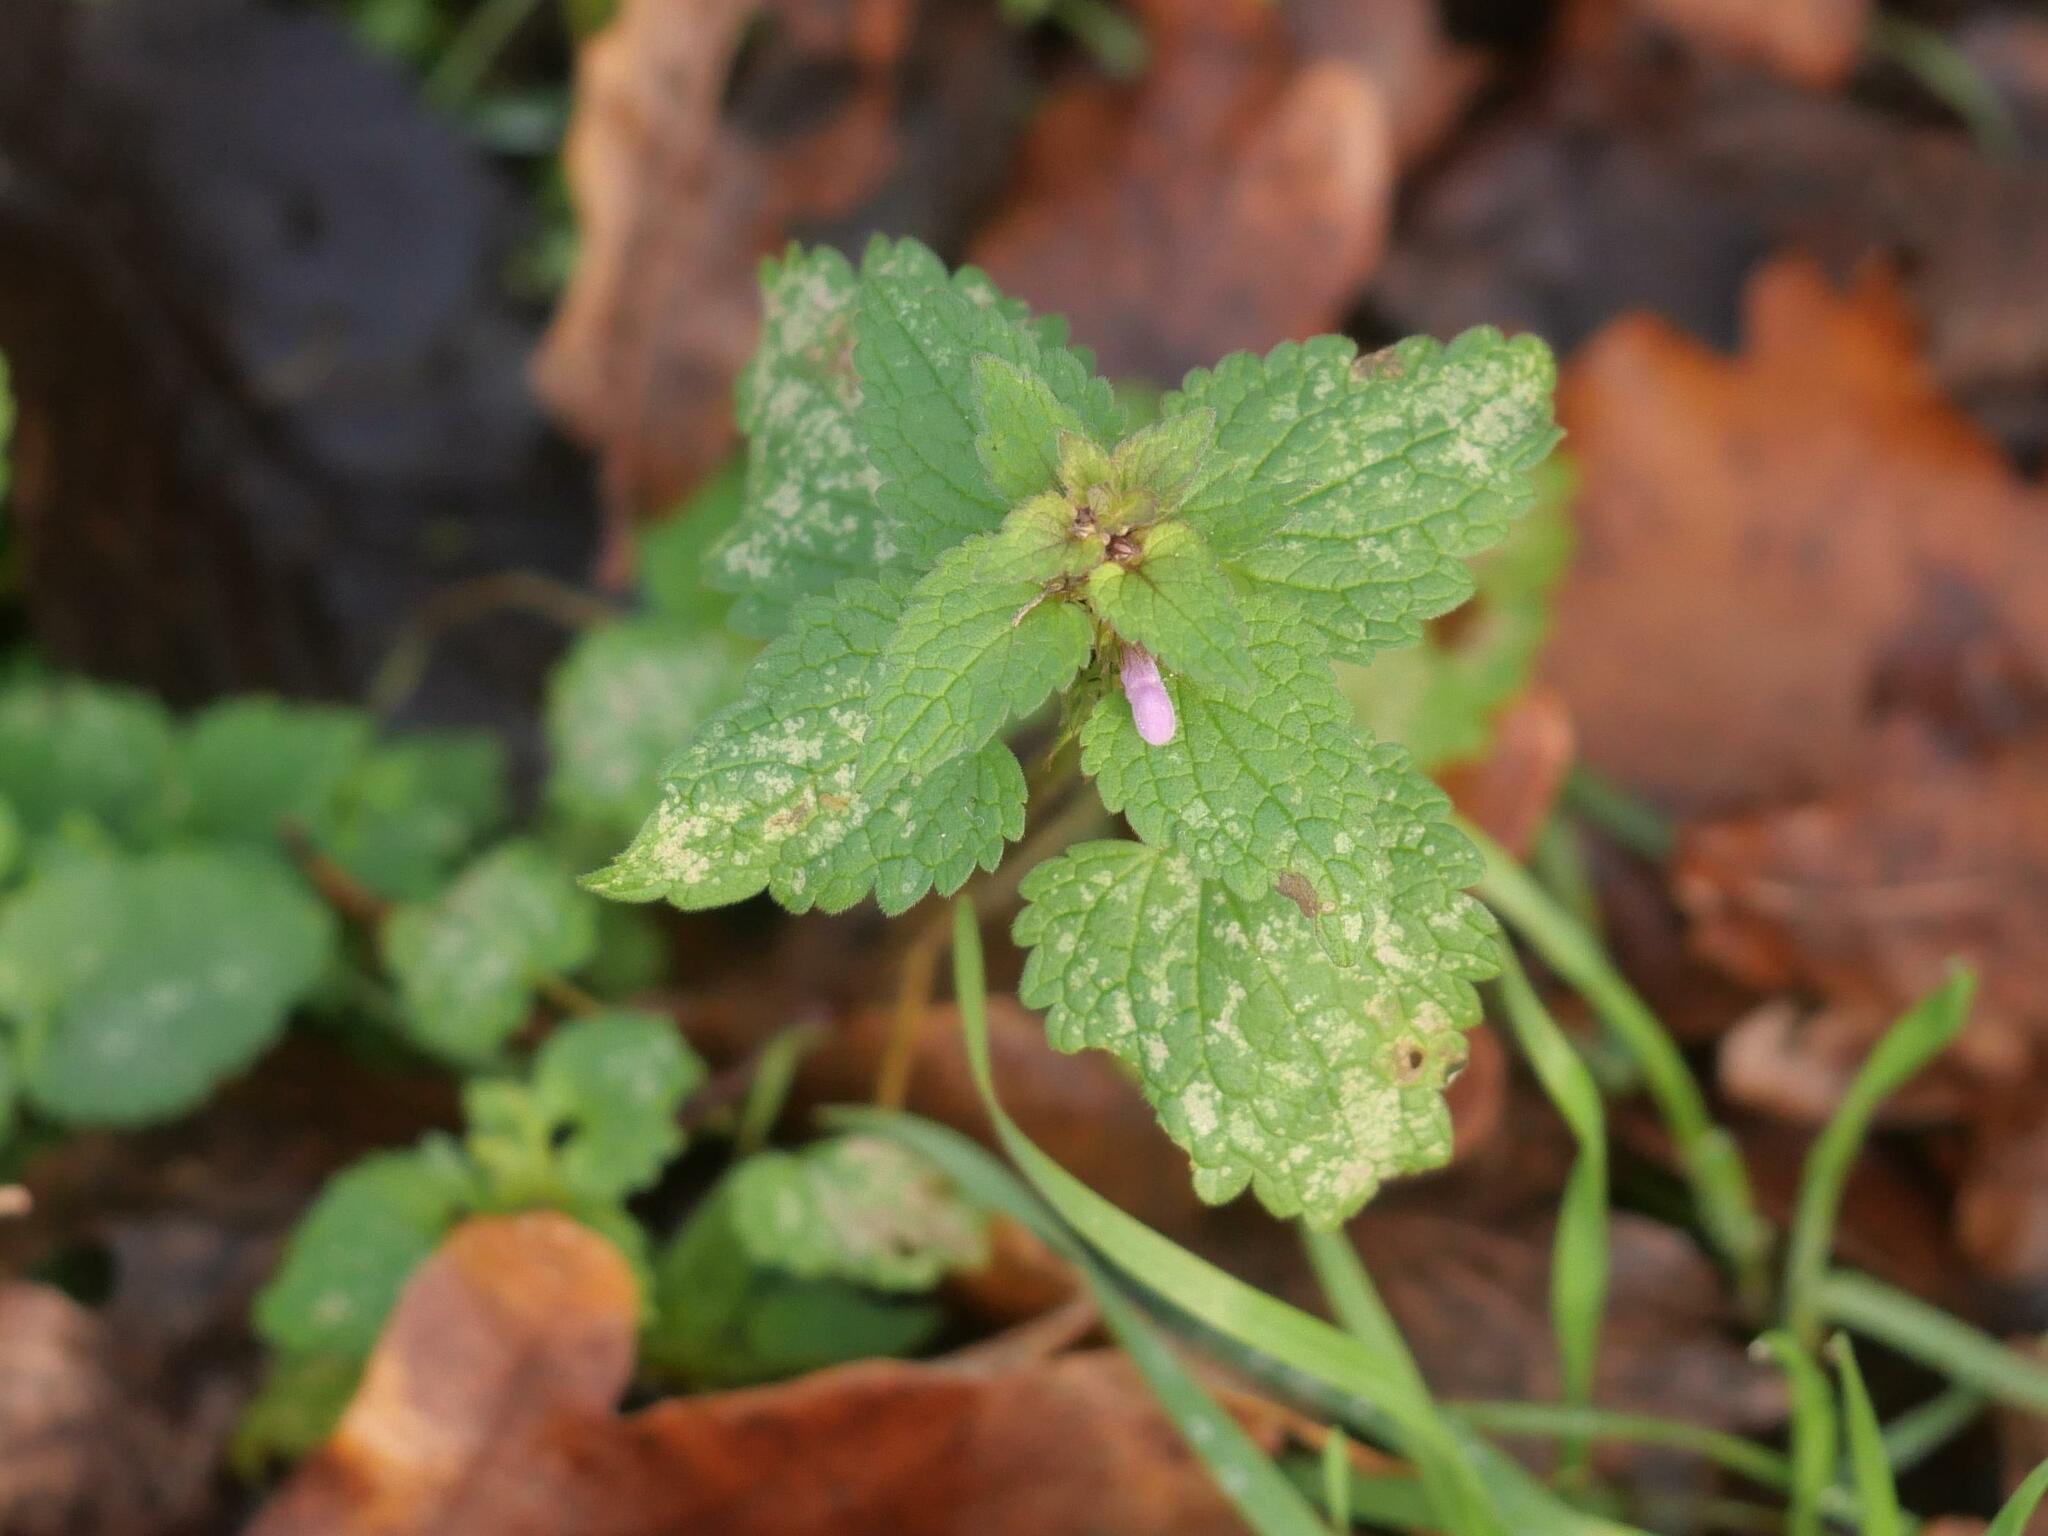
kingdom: Plantae
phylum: Tracheophyta
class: Magnoliopsida
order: Lamiales
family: Lamiaceae
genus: Lamium
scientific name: Lamium purpureum
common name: Red dead-nettle
